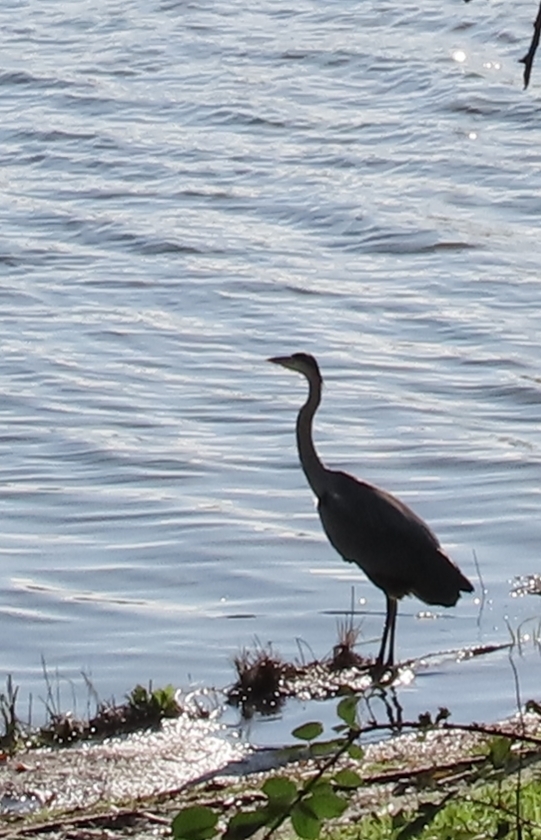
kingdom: Animalia
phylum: Chordata
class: Aves
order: Pelecaniformes
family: Ardeidae
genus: Ardea
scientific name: Ardea cinerea
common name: Grey heron
